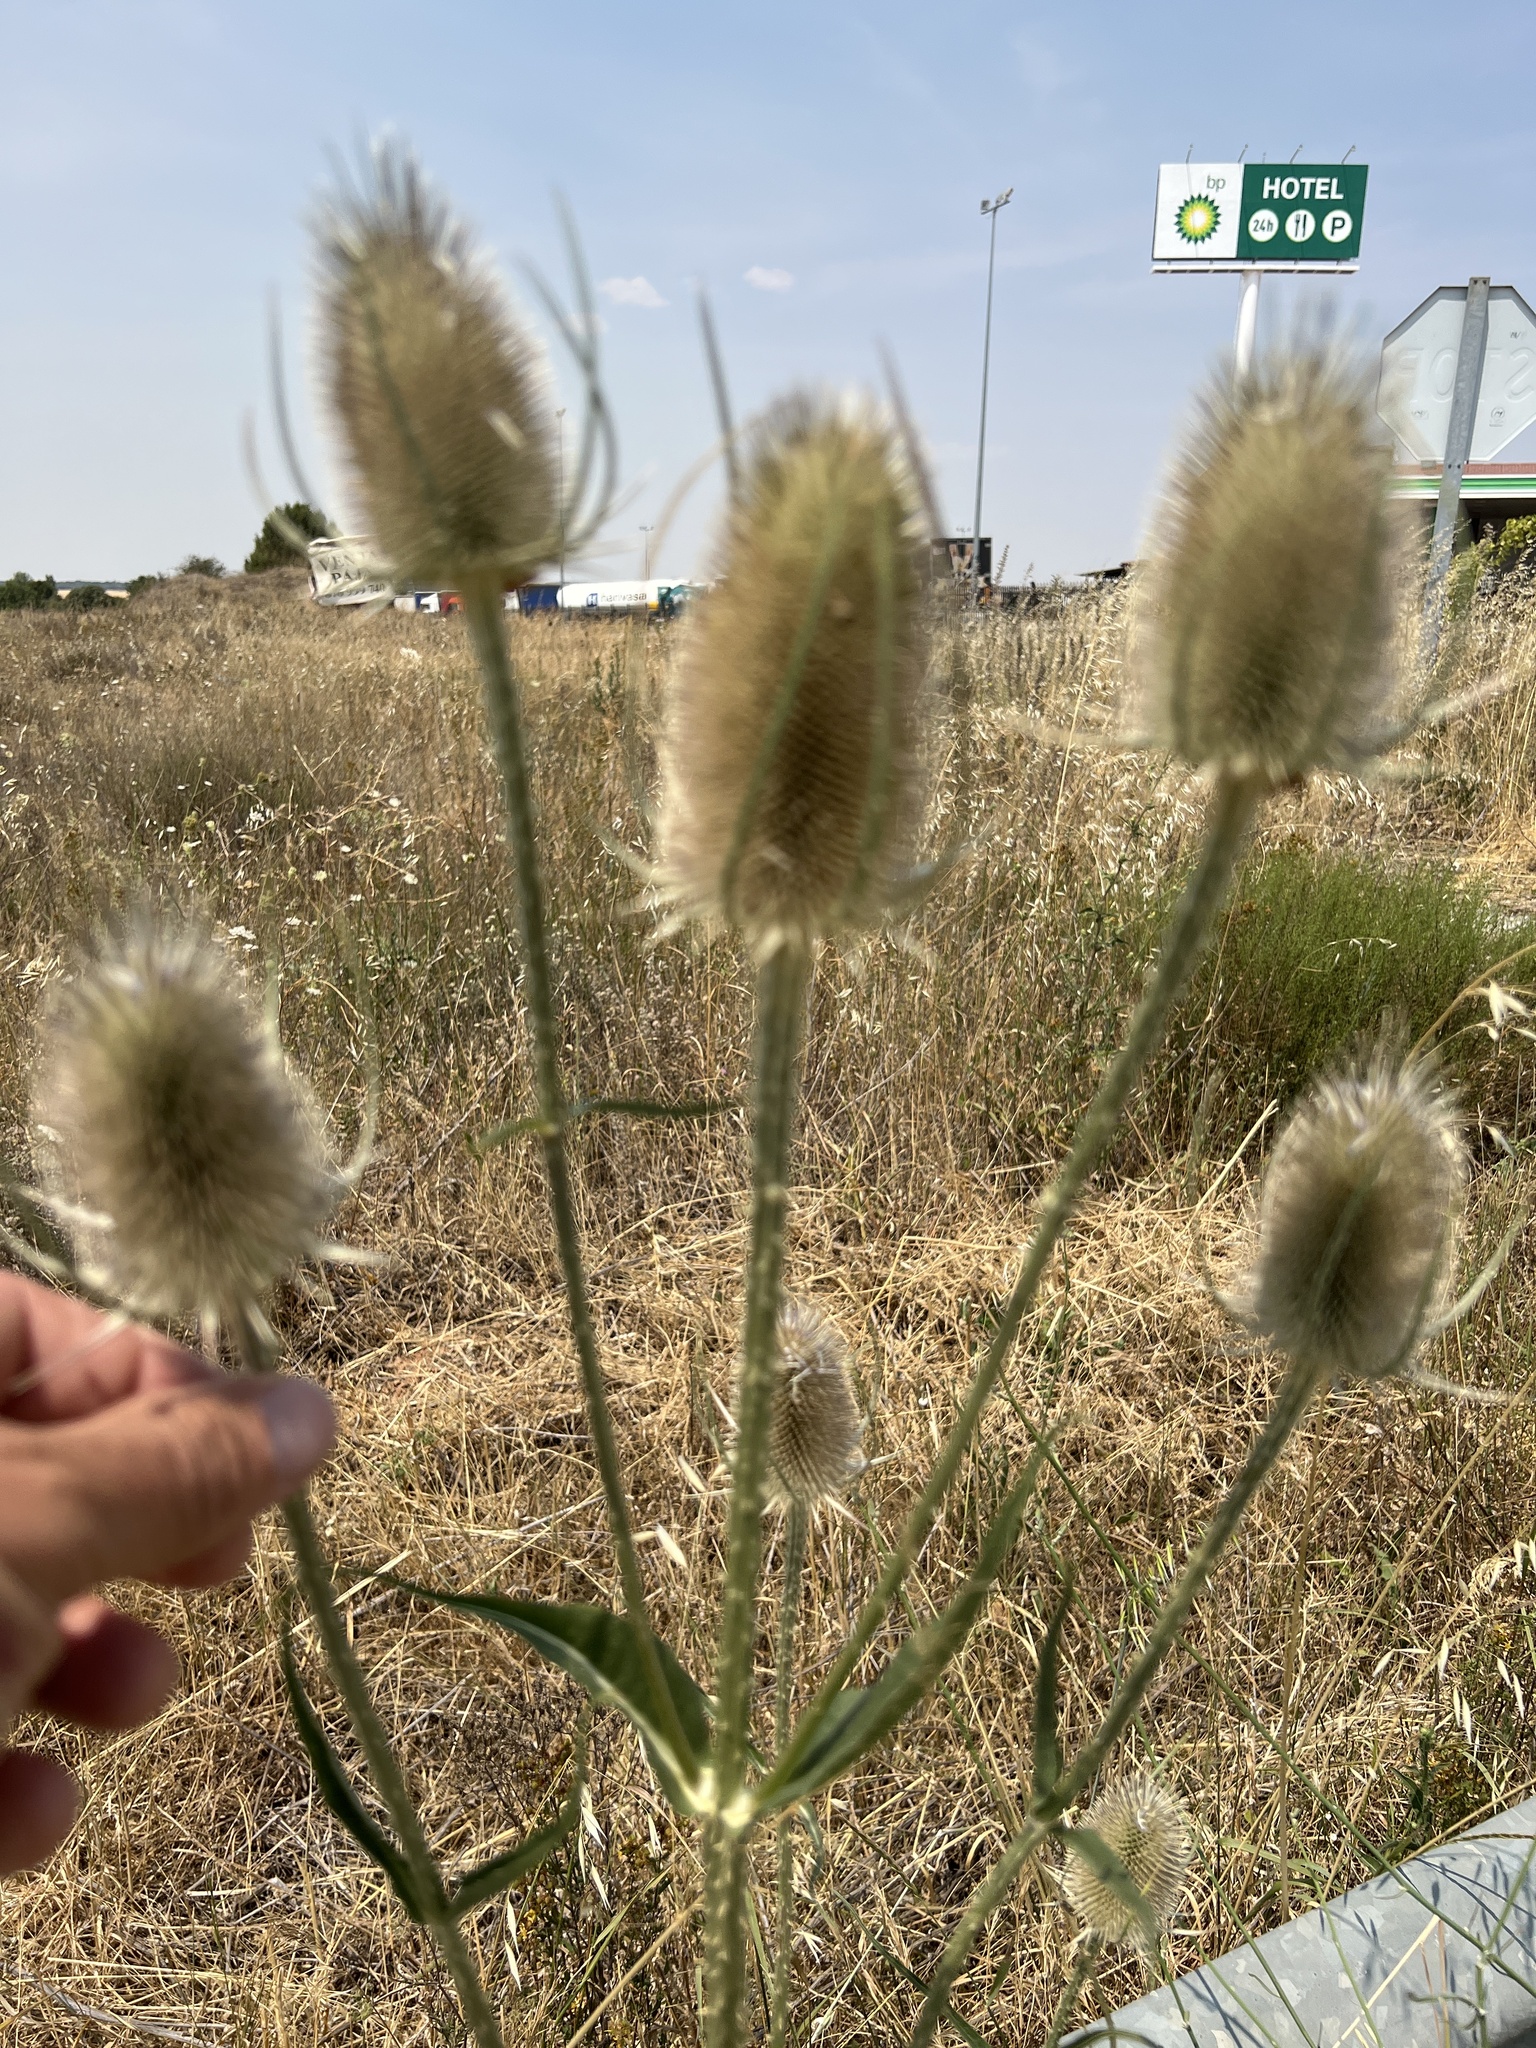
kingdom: Plantae
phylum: Tracheophyta
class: Magnoliopsida
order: Dipsacales
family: Caprifoliaceae
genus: Dipsacus
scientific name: Dipsacus fullonum
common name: Teasel
